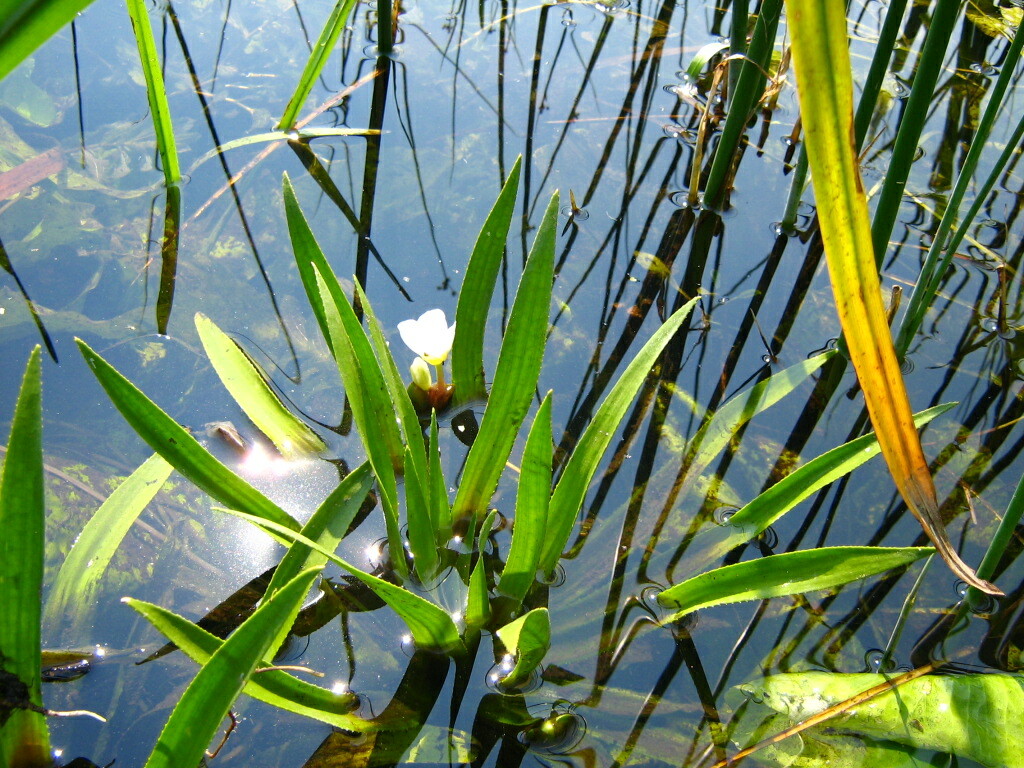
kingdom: Plantae
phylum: Tracheophyta
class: Liliopsida
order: Alismatales
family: Hydrocharitaceae
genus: Stratiotes
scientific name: Stratiotes aloides
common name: Water-soldier
